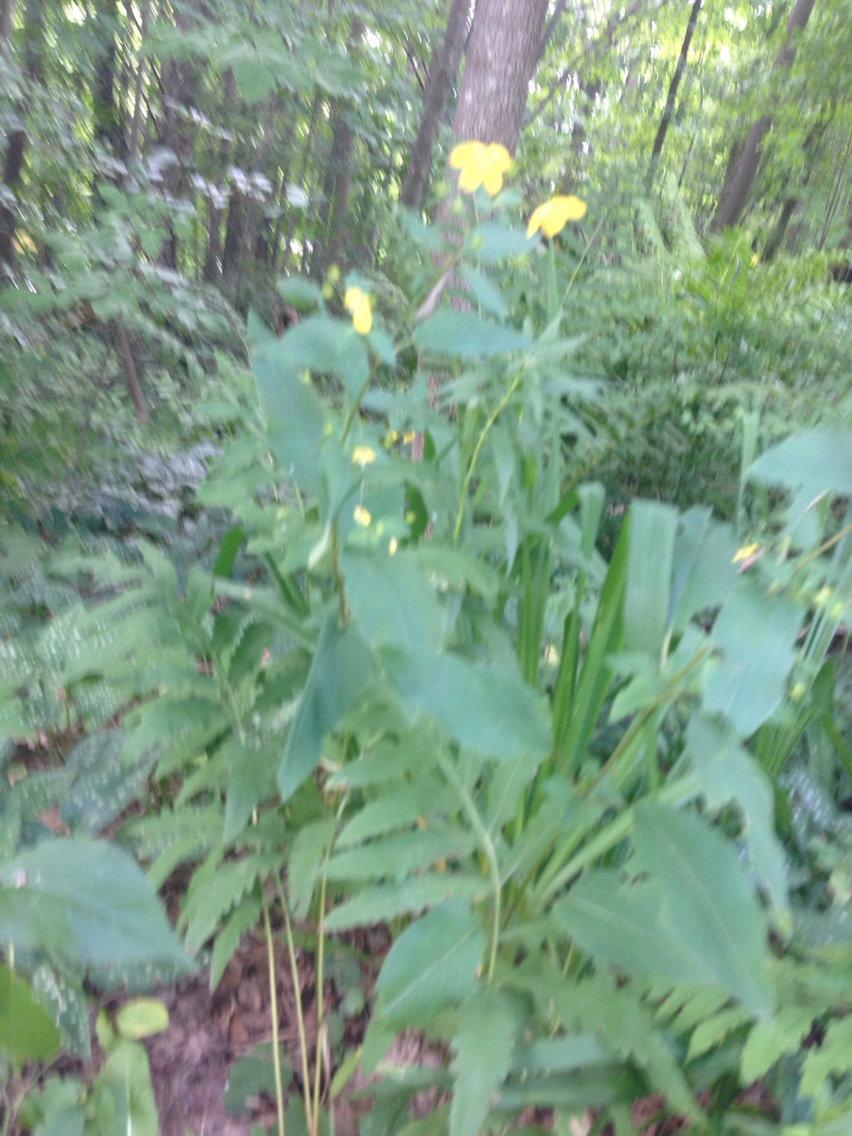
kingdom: Plantae
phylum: Tracheophyta
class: Magnoliopsida
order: Ericales
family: Primulaceae
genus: Lysimachia
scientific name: Lysimachia ciliata
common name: Fringed loosestrife
